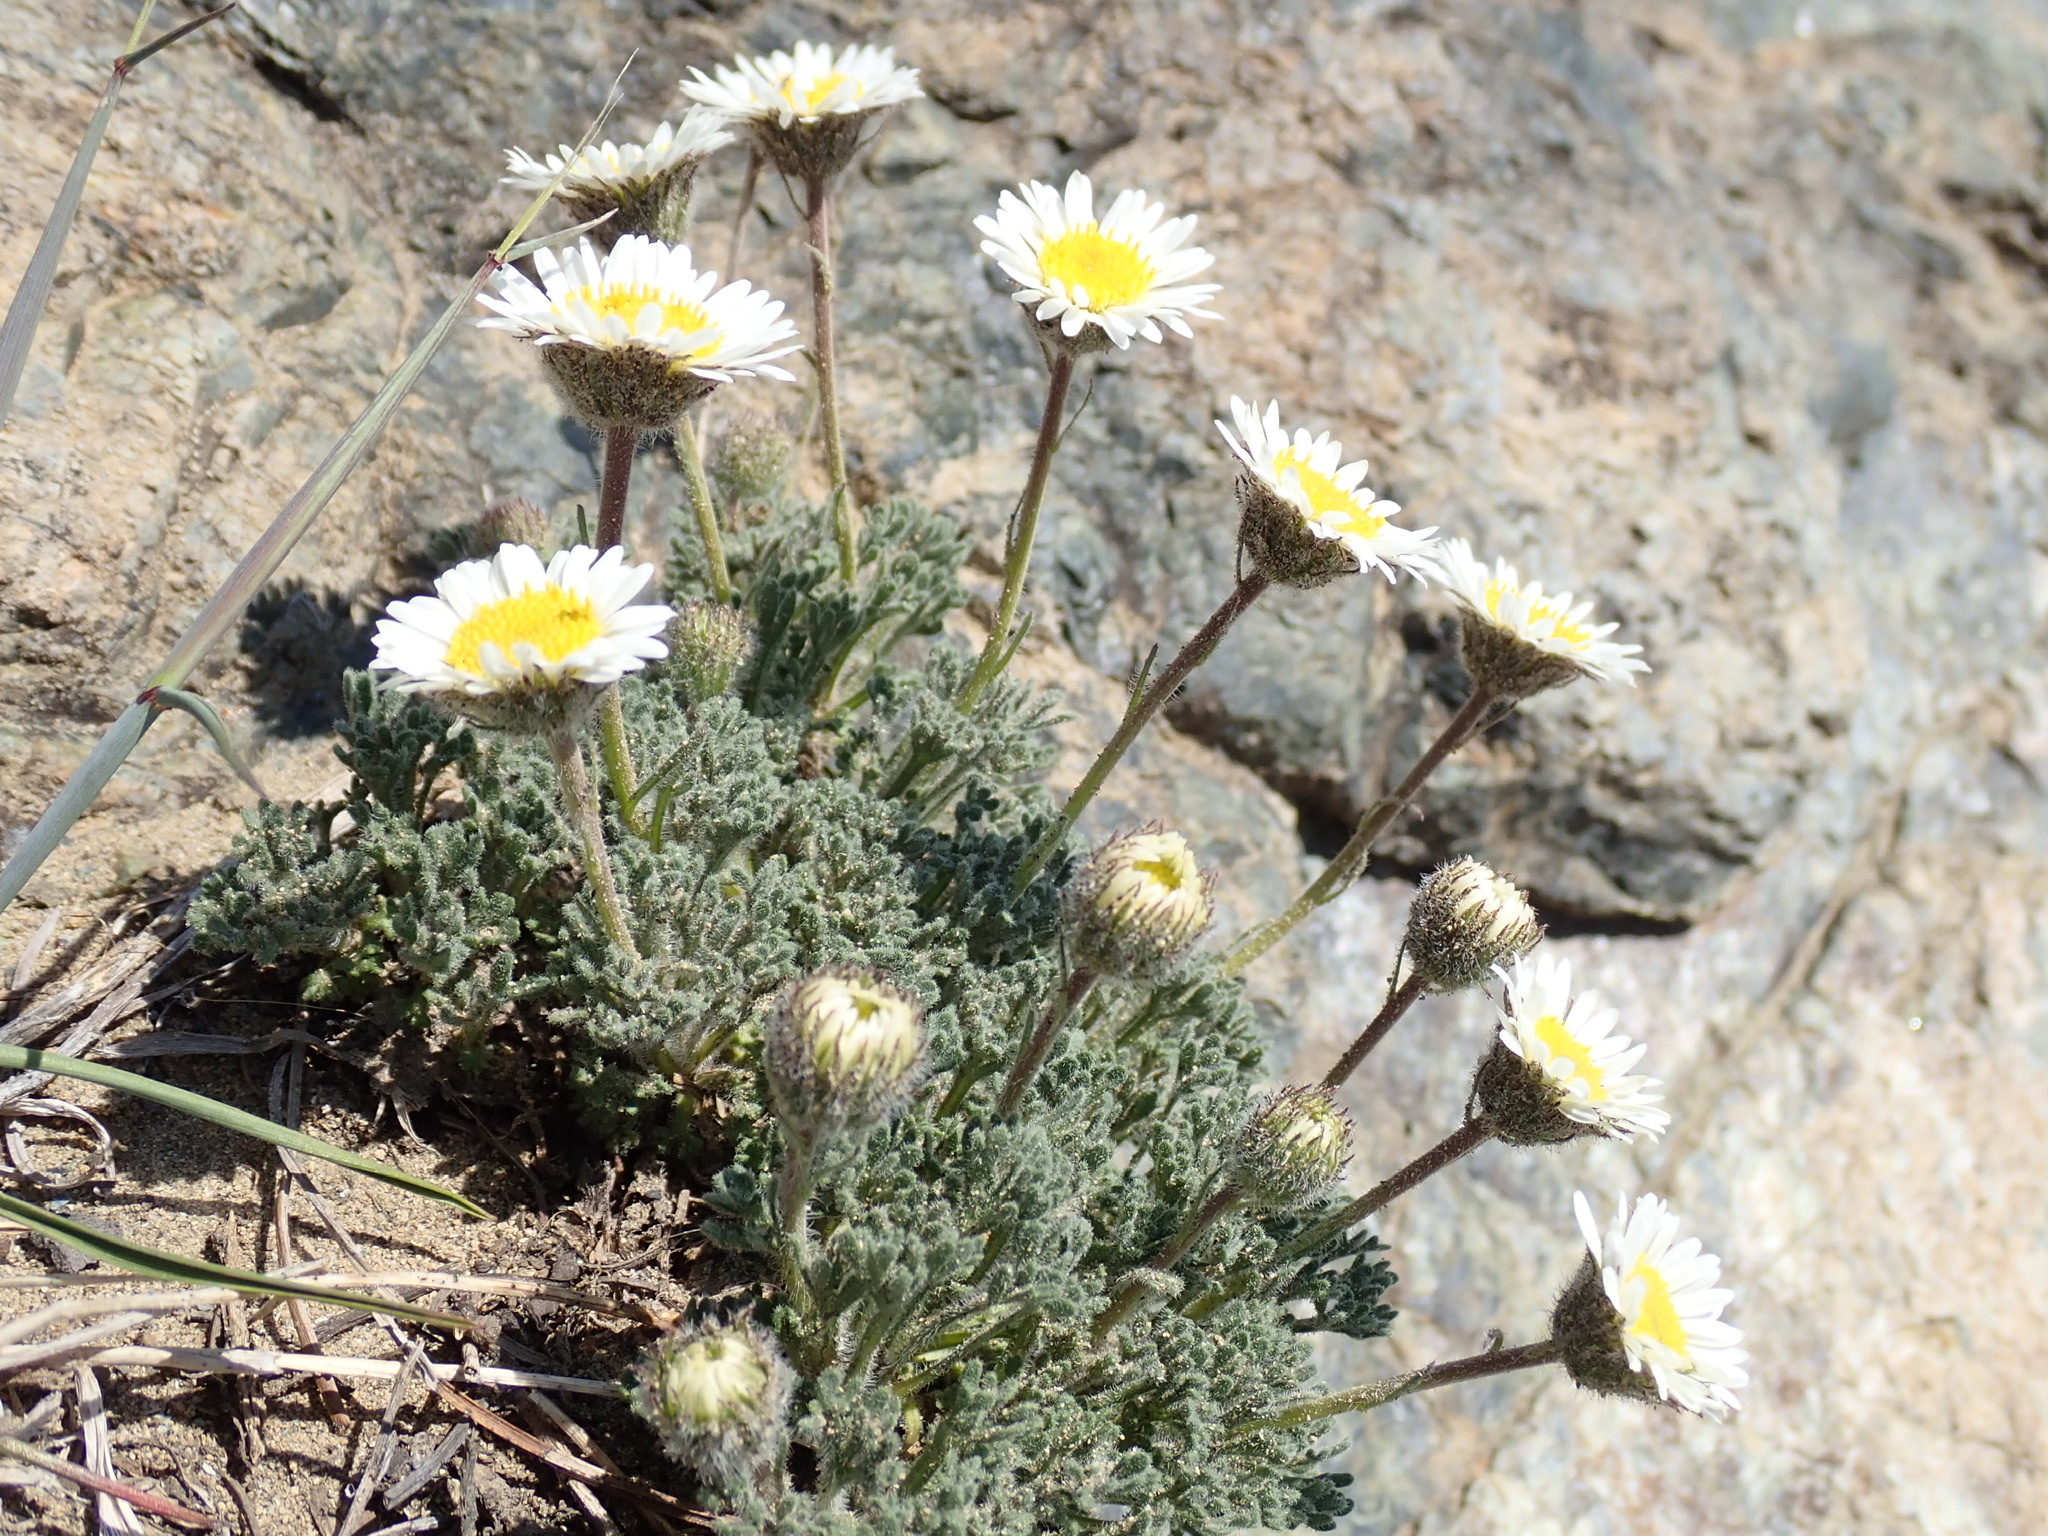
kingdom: Plantae
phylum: Tracheophyta
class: Magnoliopsida
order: Asterales
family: Asteraceae
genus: Erigeron
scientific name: Erigeron compositus
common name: Dwarf mountain fleabane
